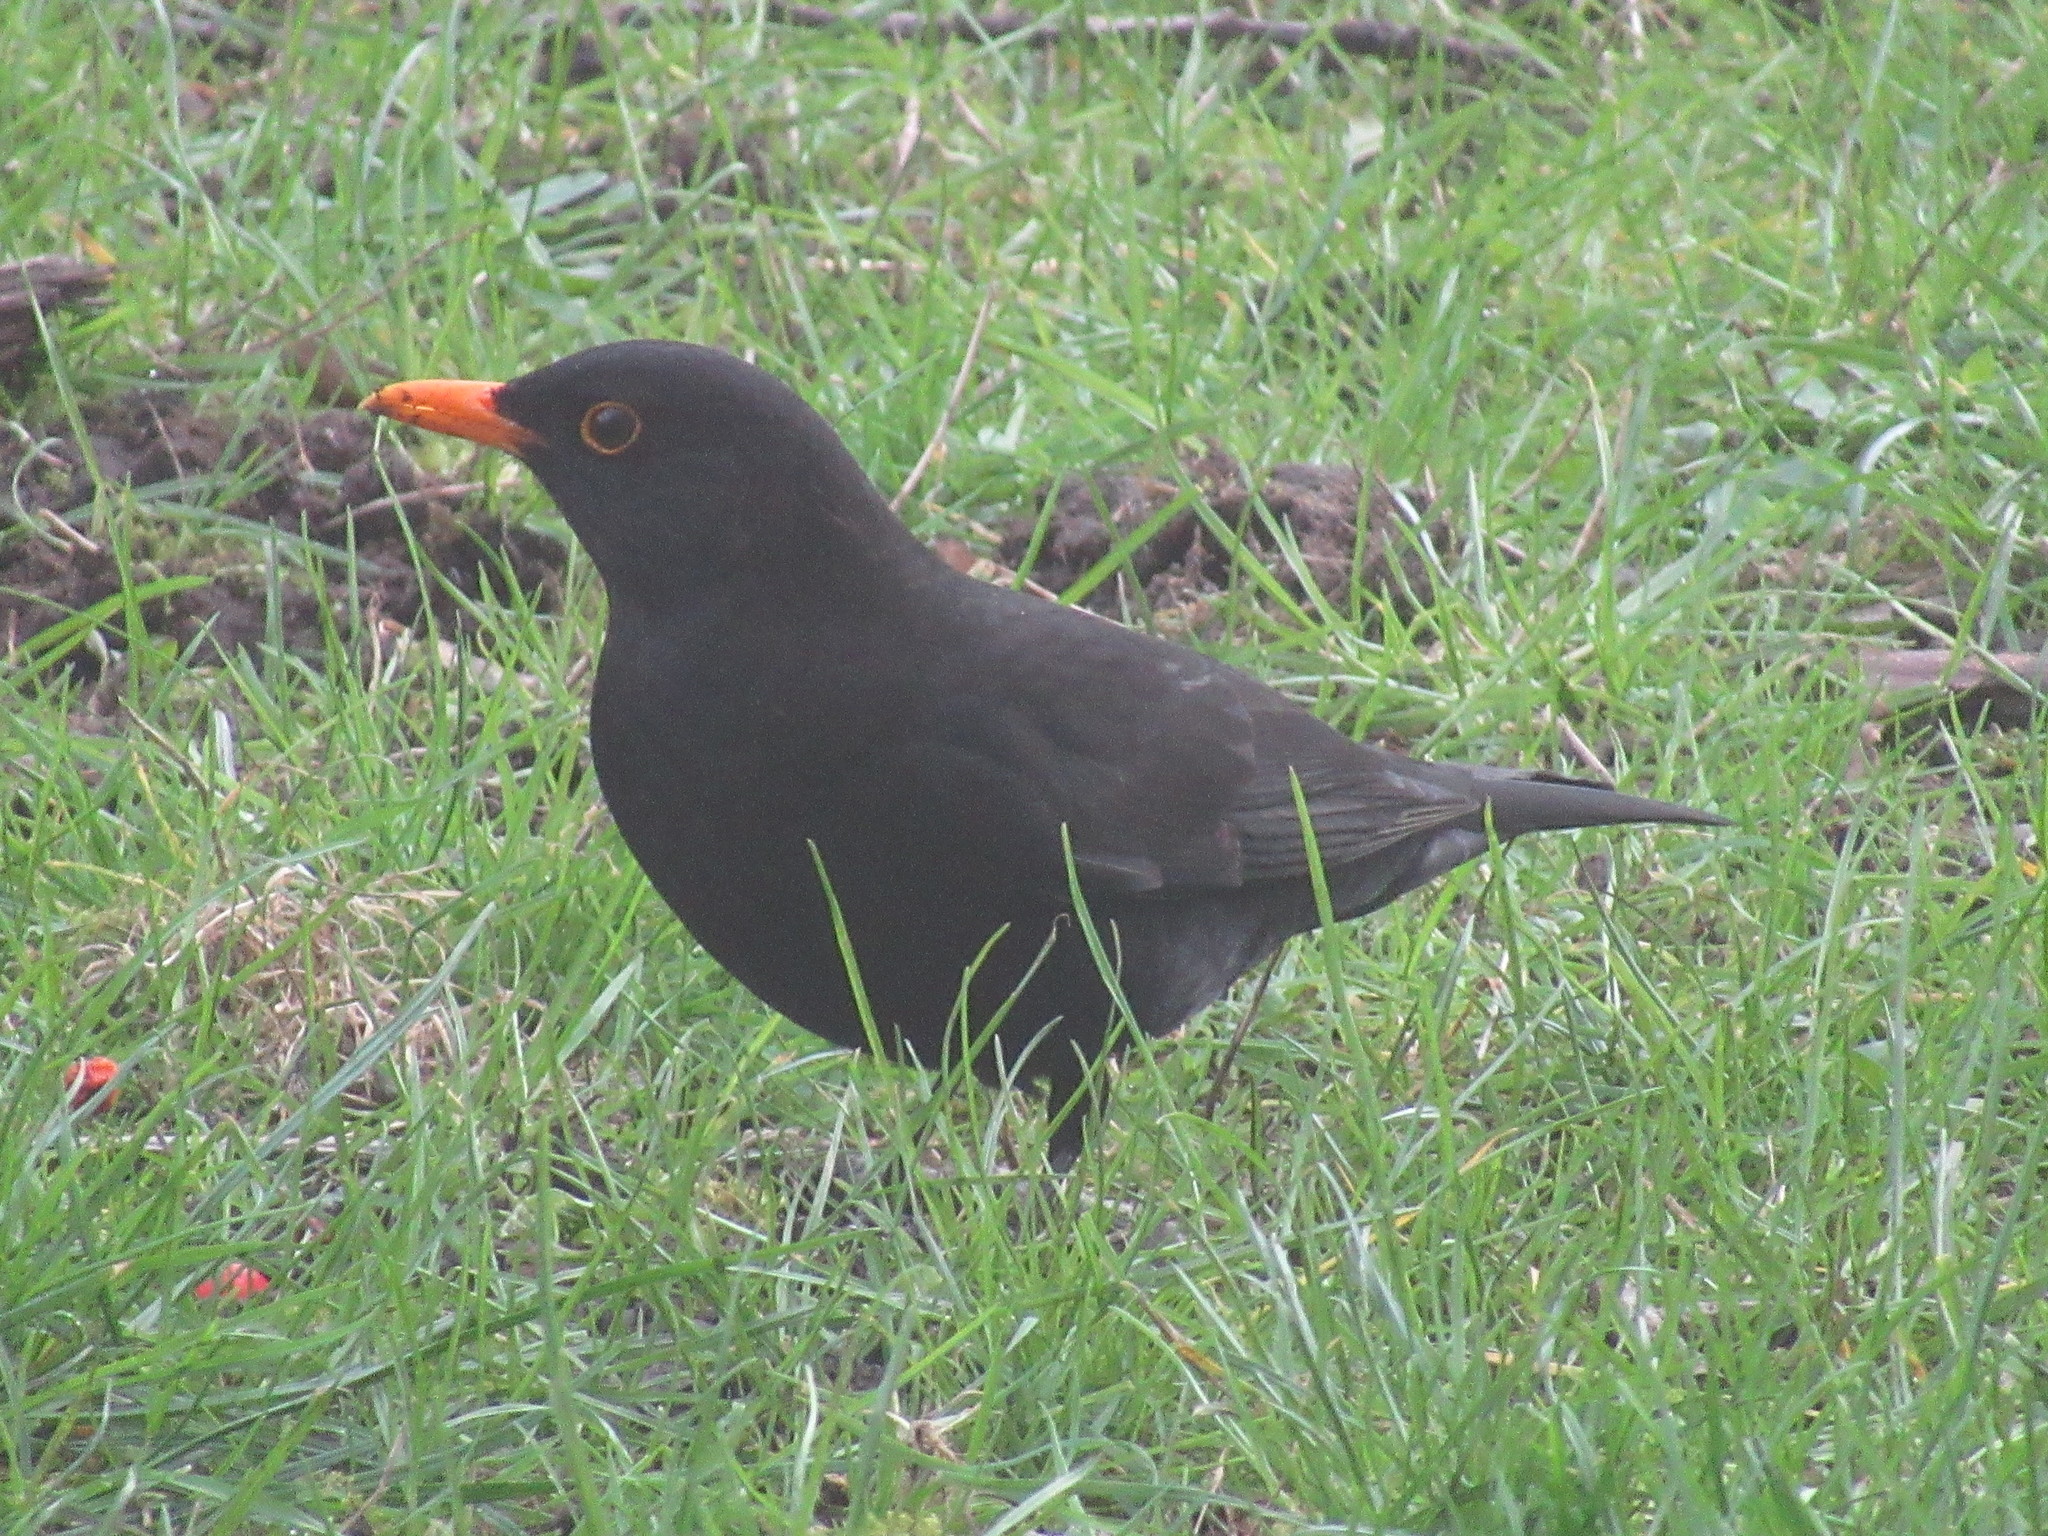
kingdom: Animalia
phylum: Chordata
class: Aves
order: Passeriformes
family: Turdidae
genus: Turdus
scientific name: Turdus merula
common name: Common blackbird
